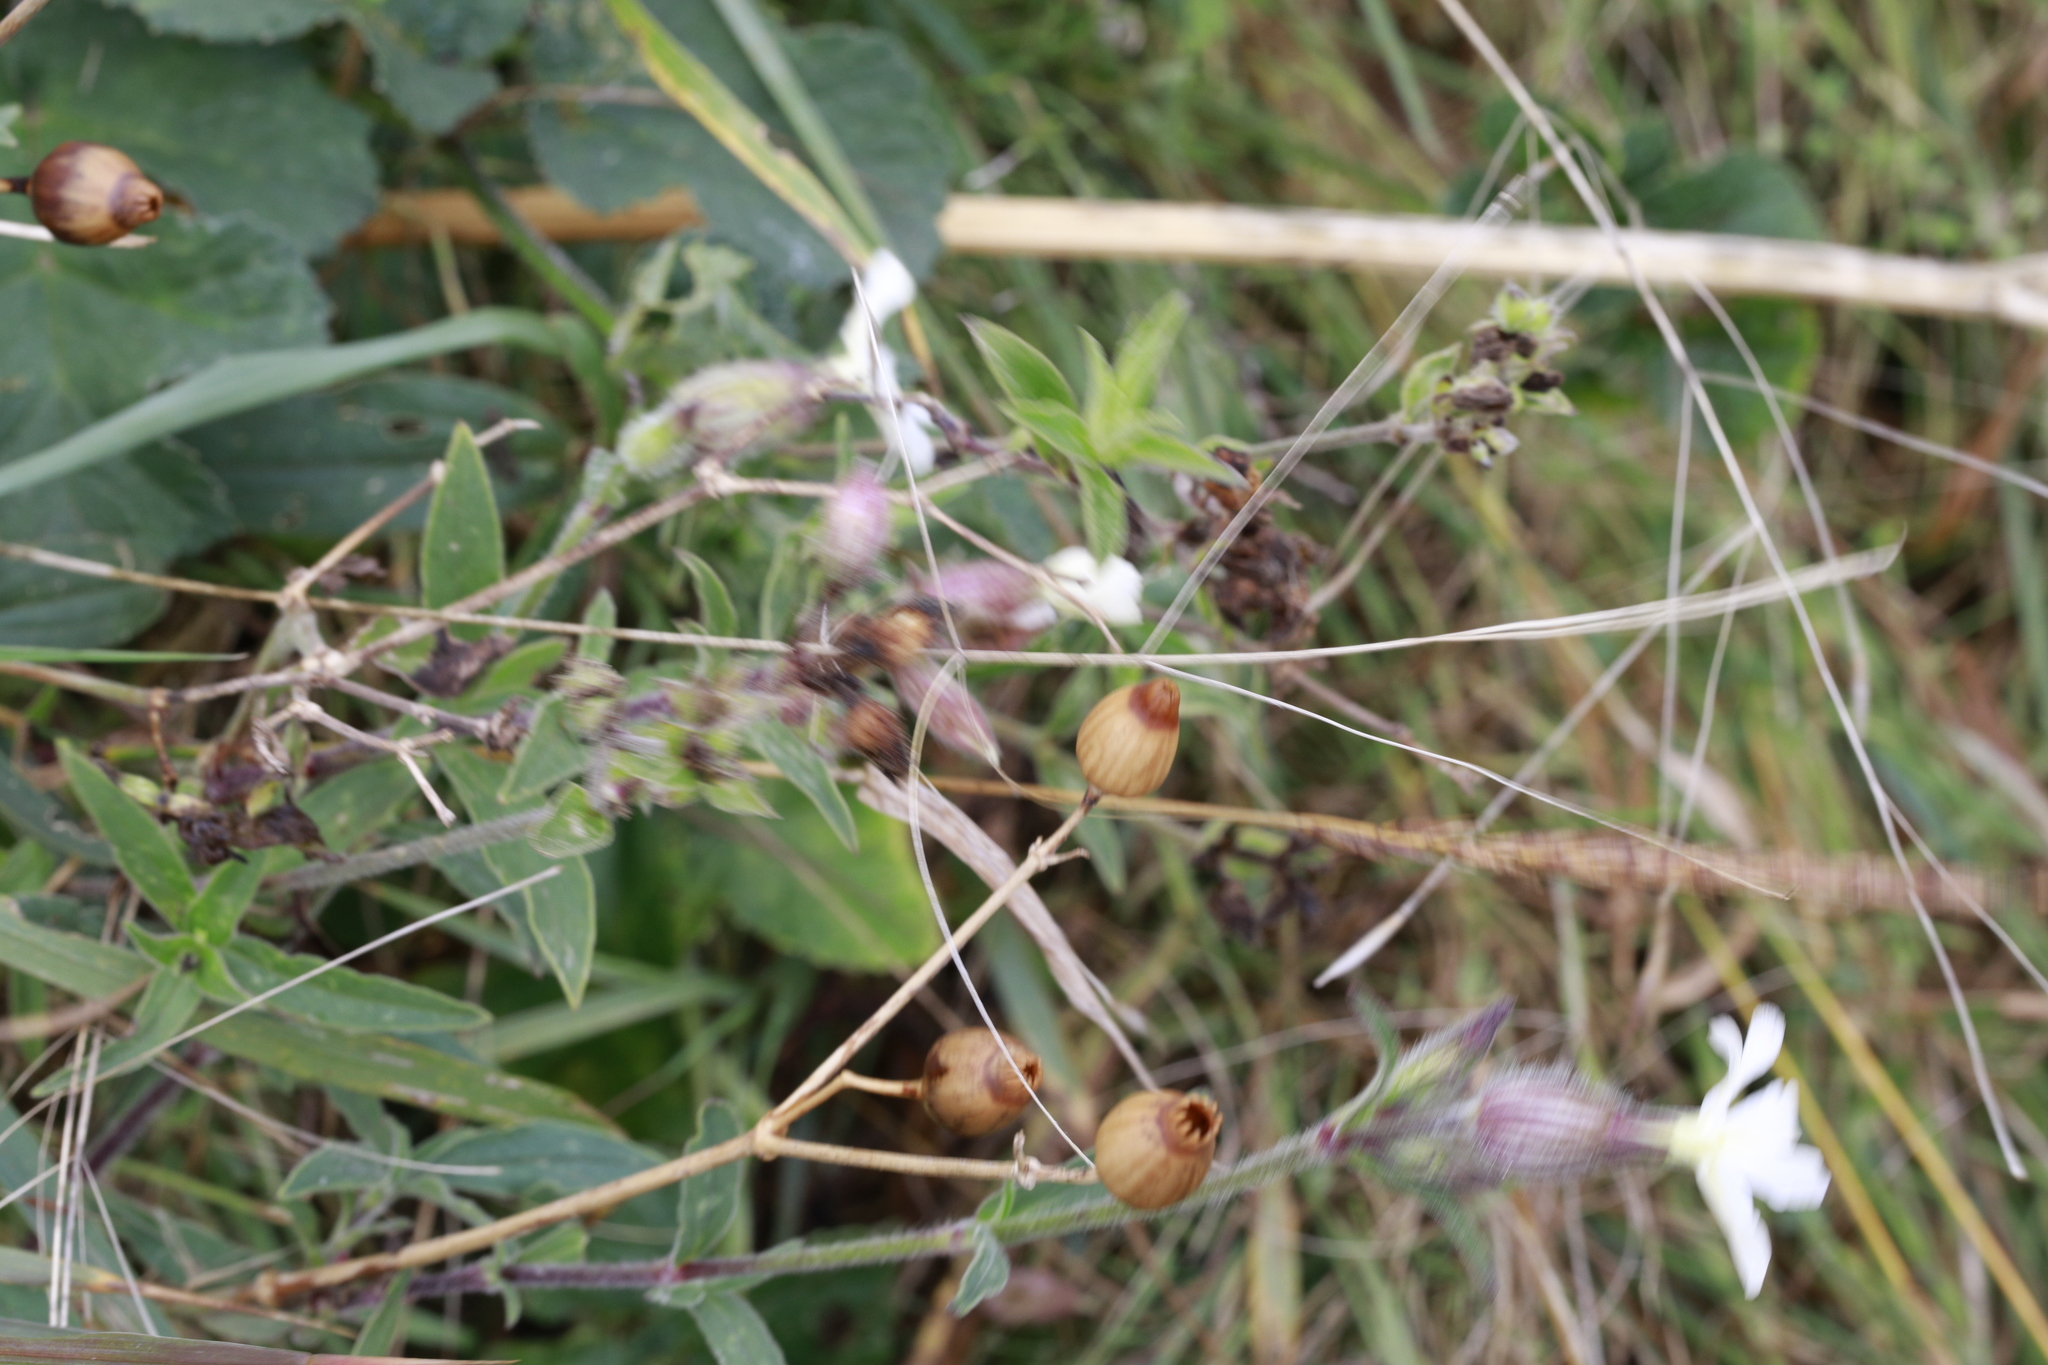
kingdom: Plantae
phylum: Tracheophyta
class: Magnoliopsida
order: Caryophyllales
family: Caryophyllaceae
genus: Silene
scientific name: Silene latifolia
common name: White campion
